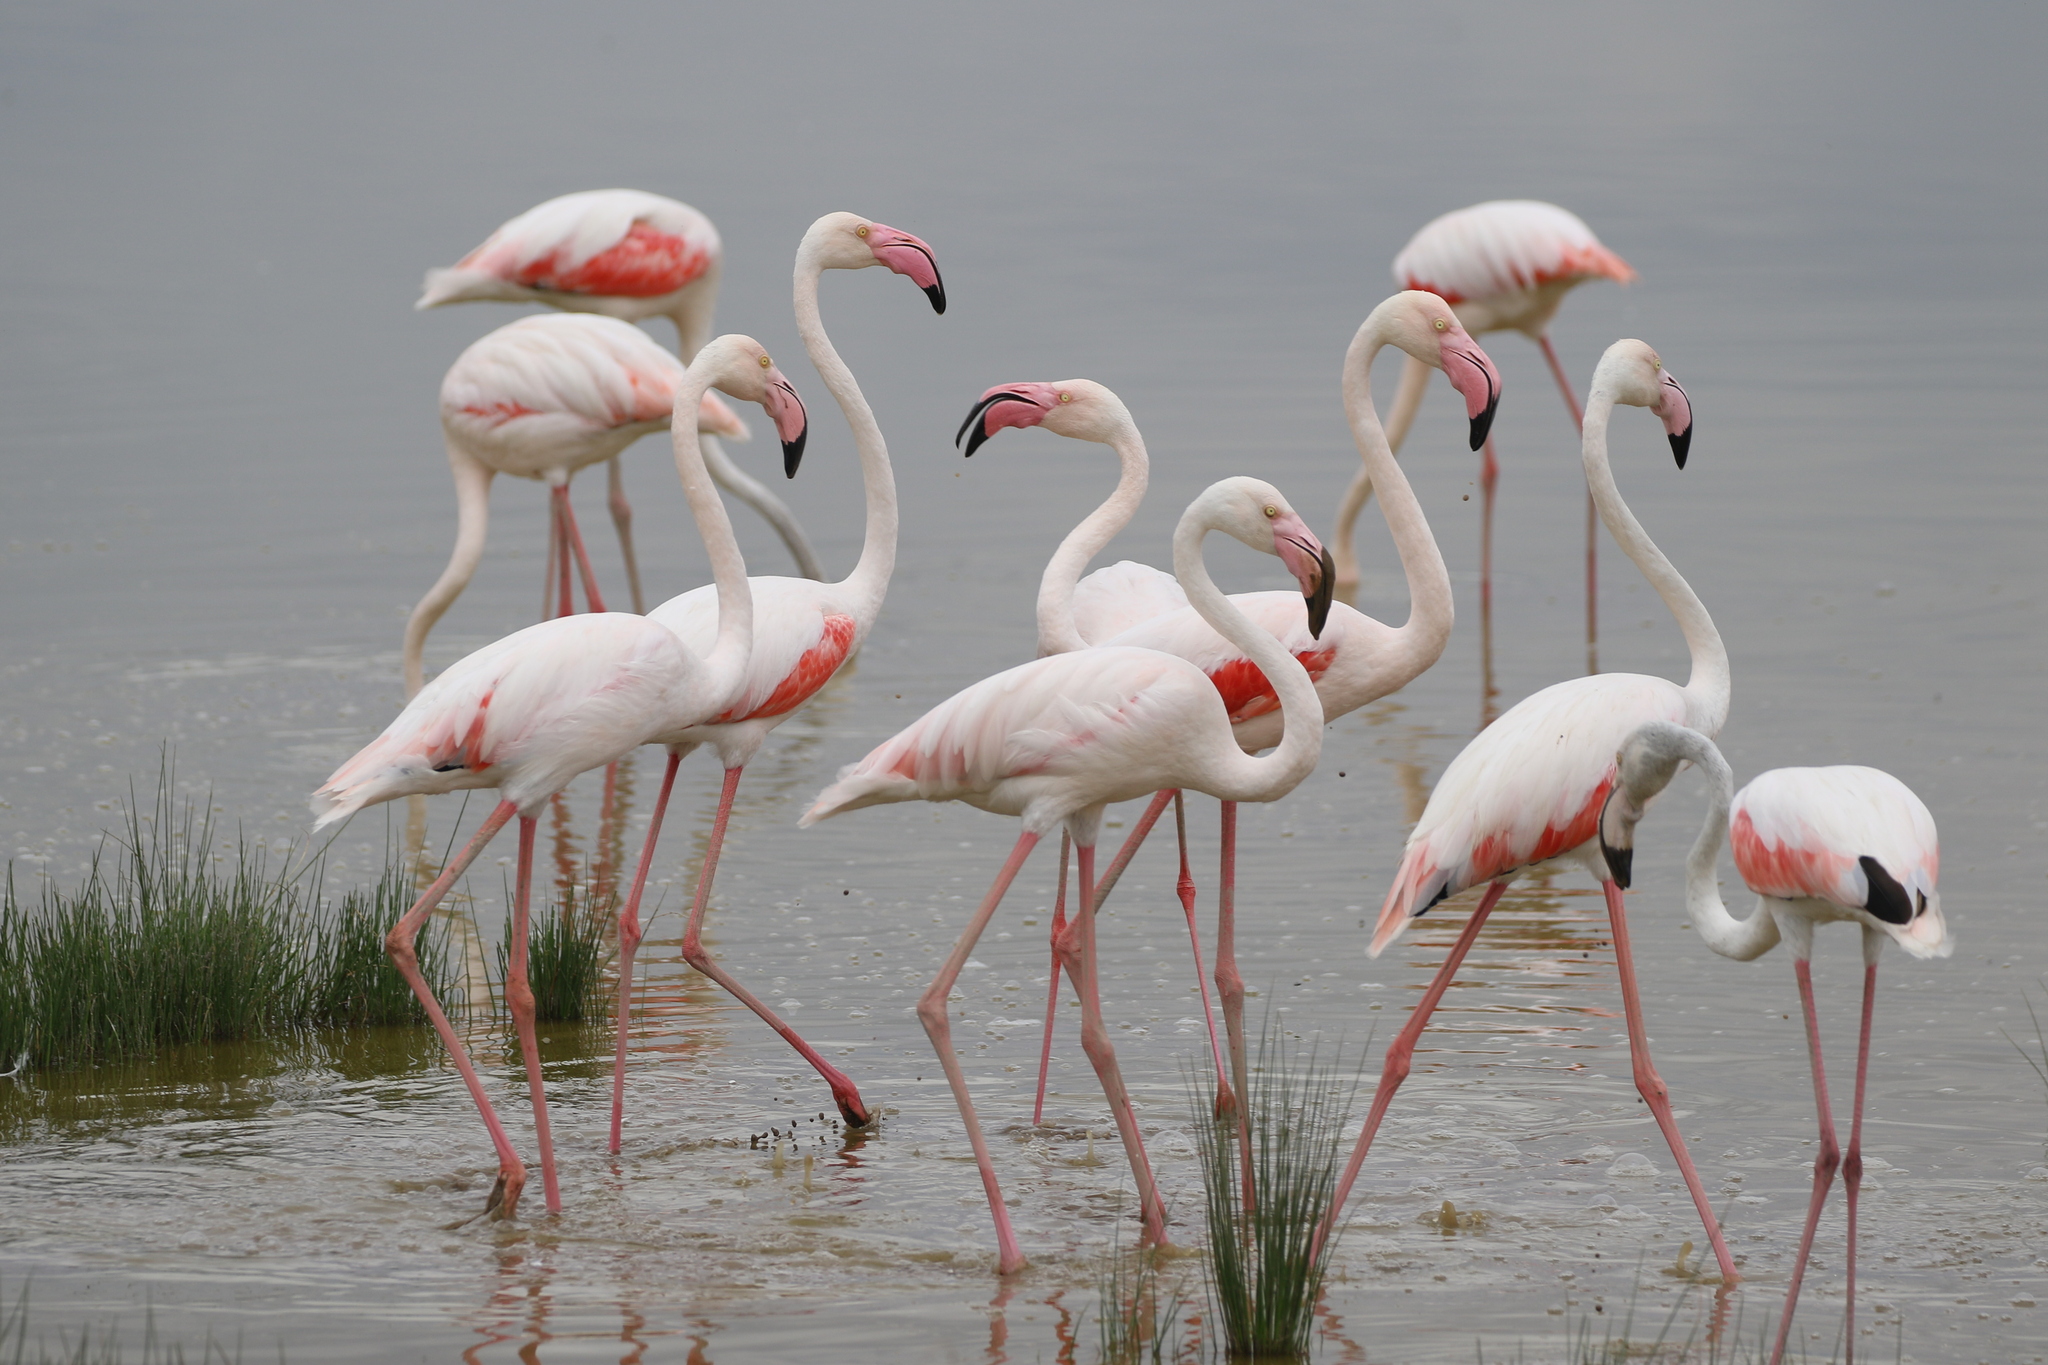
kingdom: Animalia
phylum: Chordata
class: Aves
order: Phoenicopteriformes
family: Phoenicopteridae
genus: Phoenicopterus
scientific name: Phoenicopterus roseus
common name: Greater flamingo
